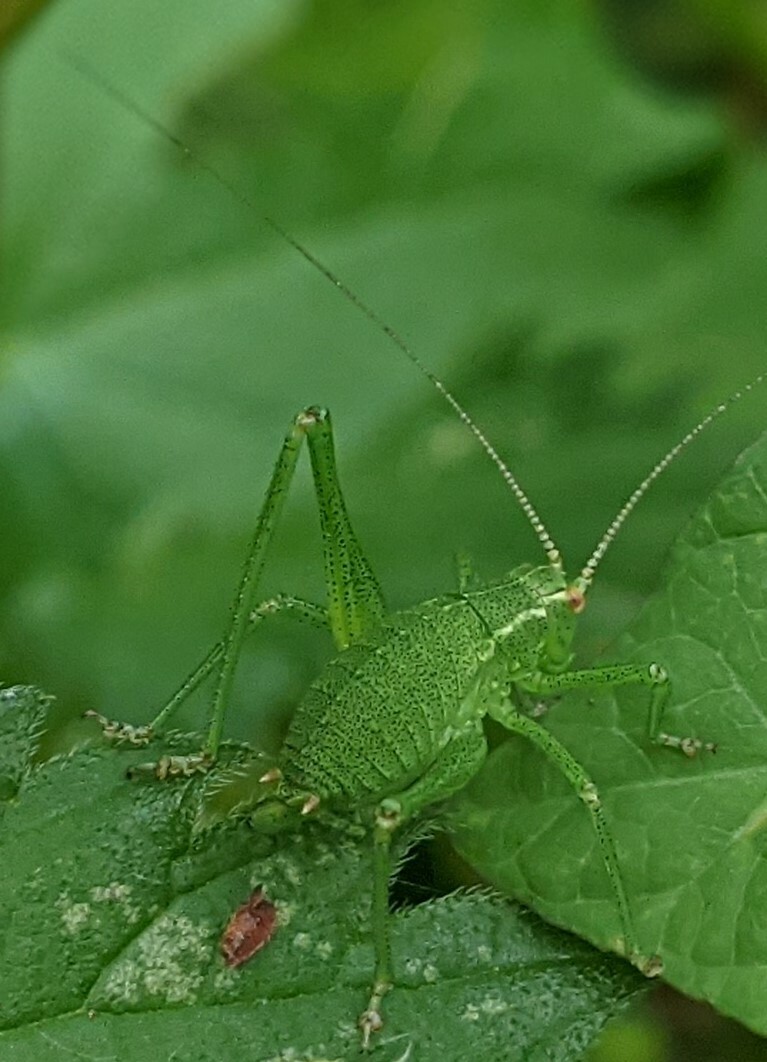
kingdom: Animalia
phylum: Arthropoda
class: Insecta
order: Orthoptera
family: Tettigoniidae
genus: Leptophyes
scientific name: Leptophyes punctatissima
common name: Speckled bush-cricket
